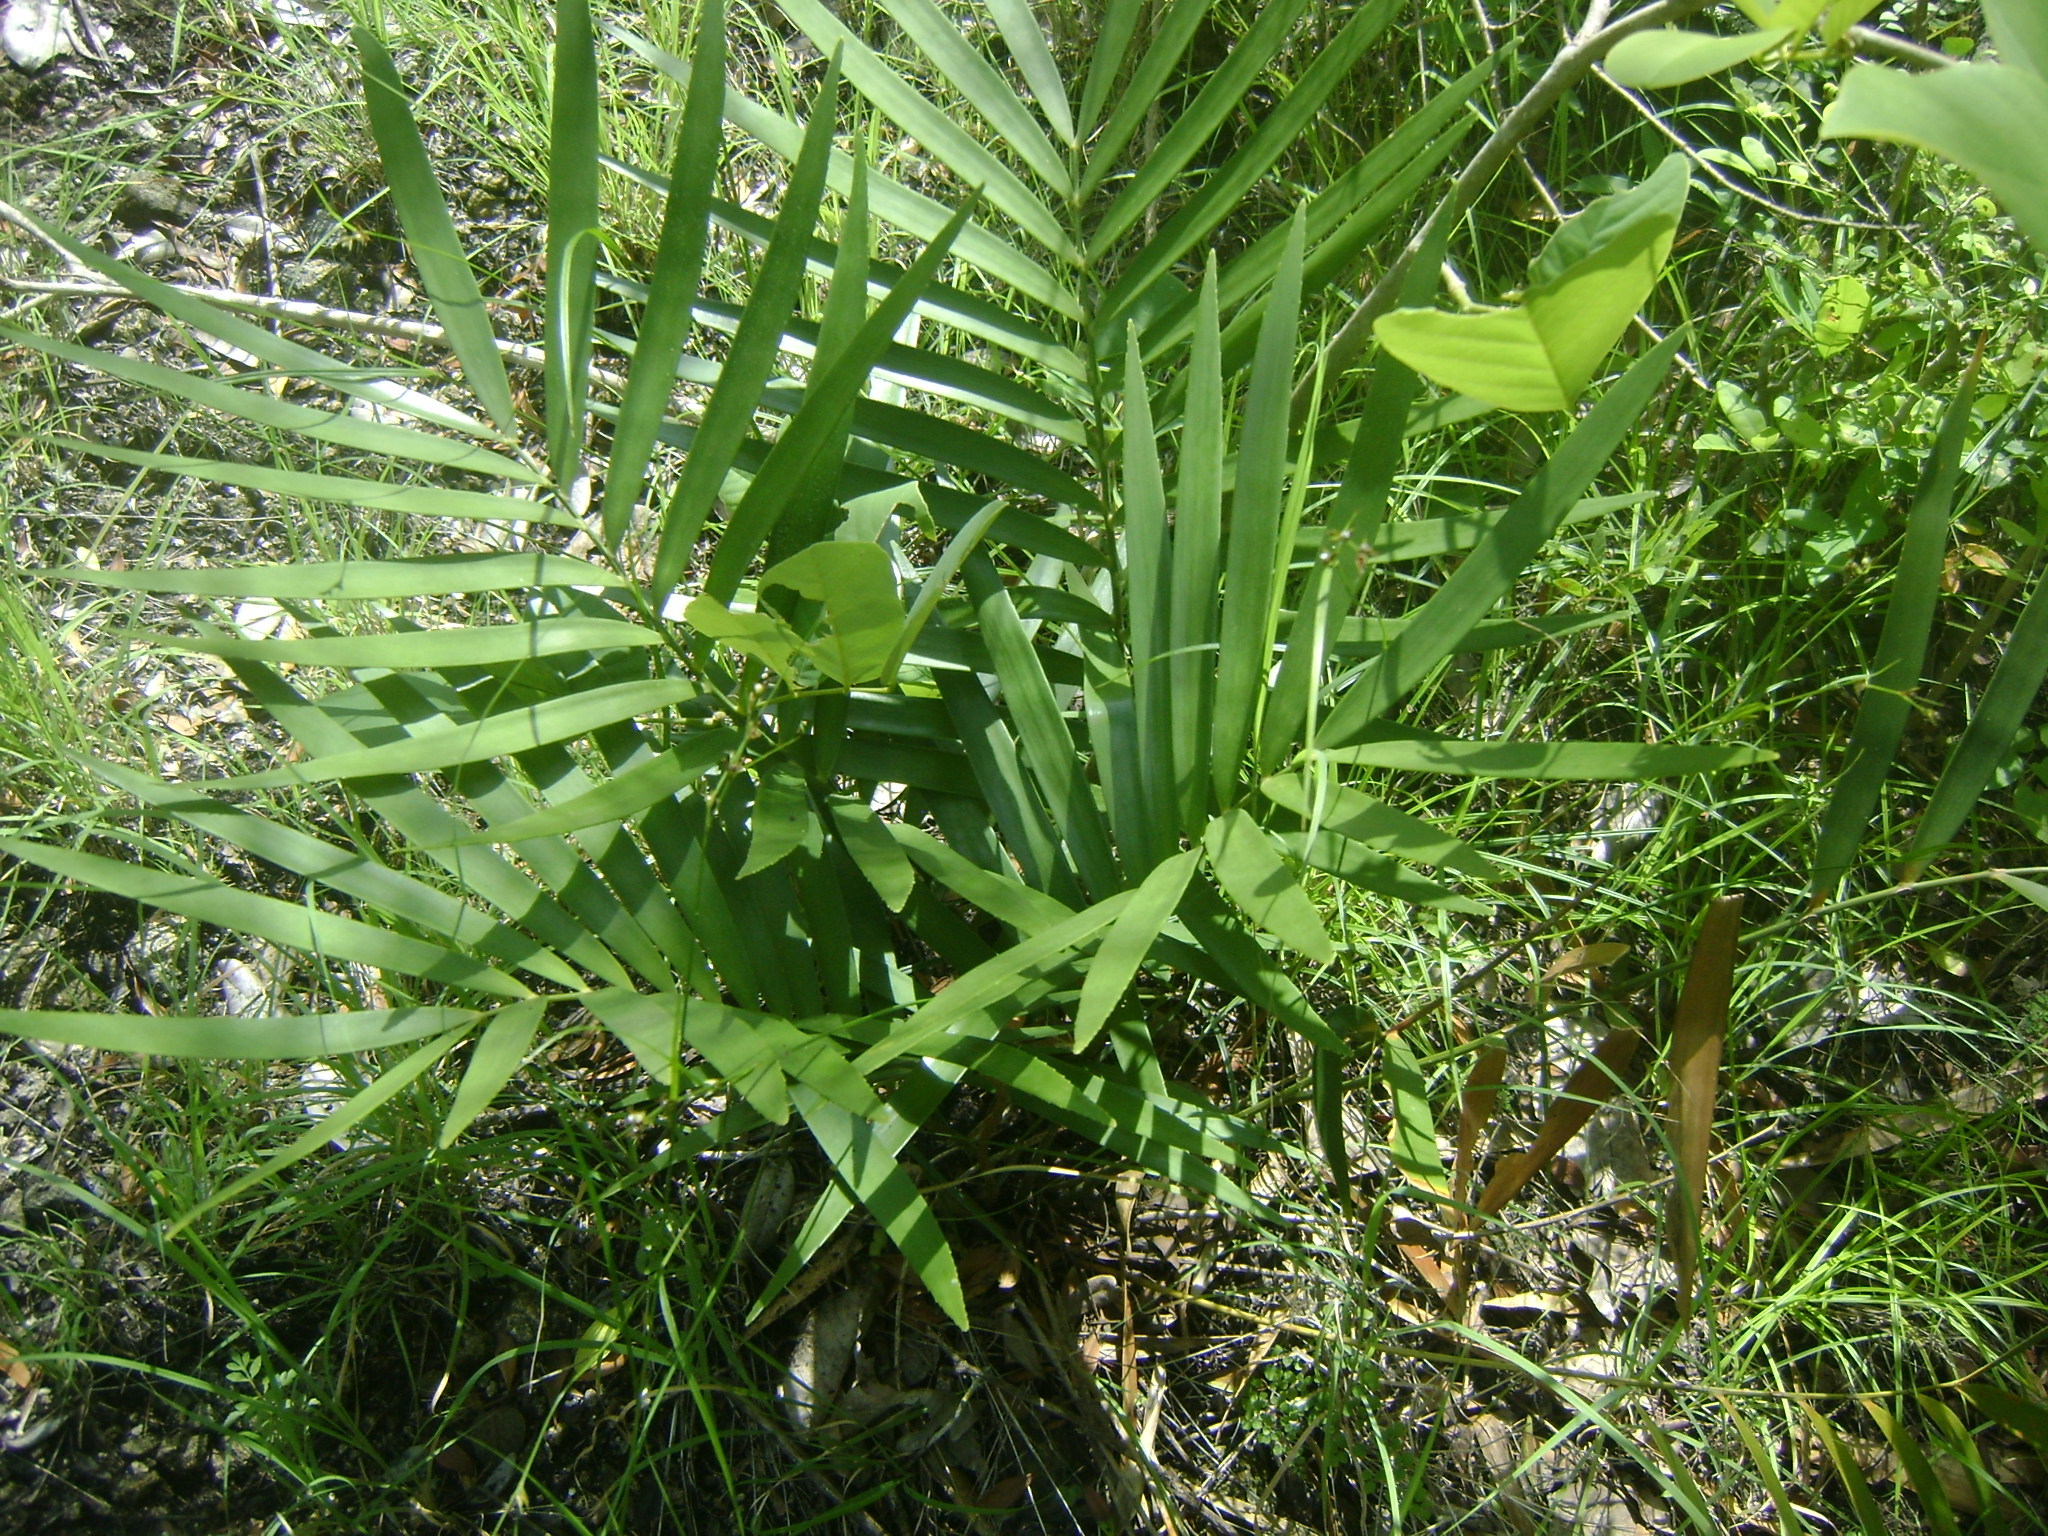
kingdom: Plantae
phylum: Tracheophyta
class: Cycadopsida
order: Cycadales
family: Zamiaceae
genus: Zamia
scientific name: Zamia loddigesii
